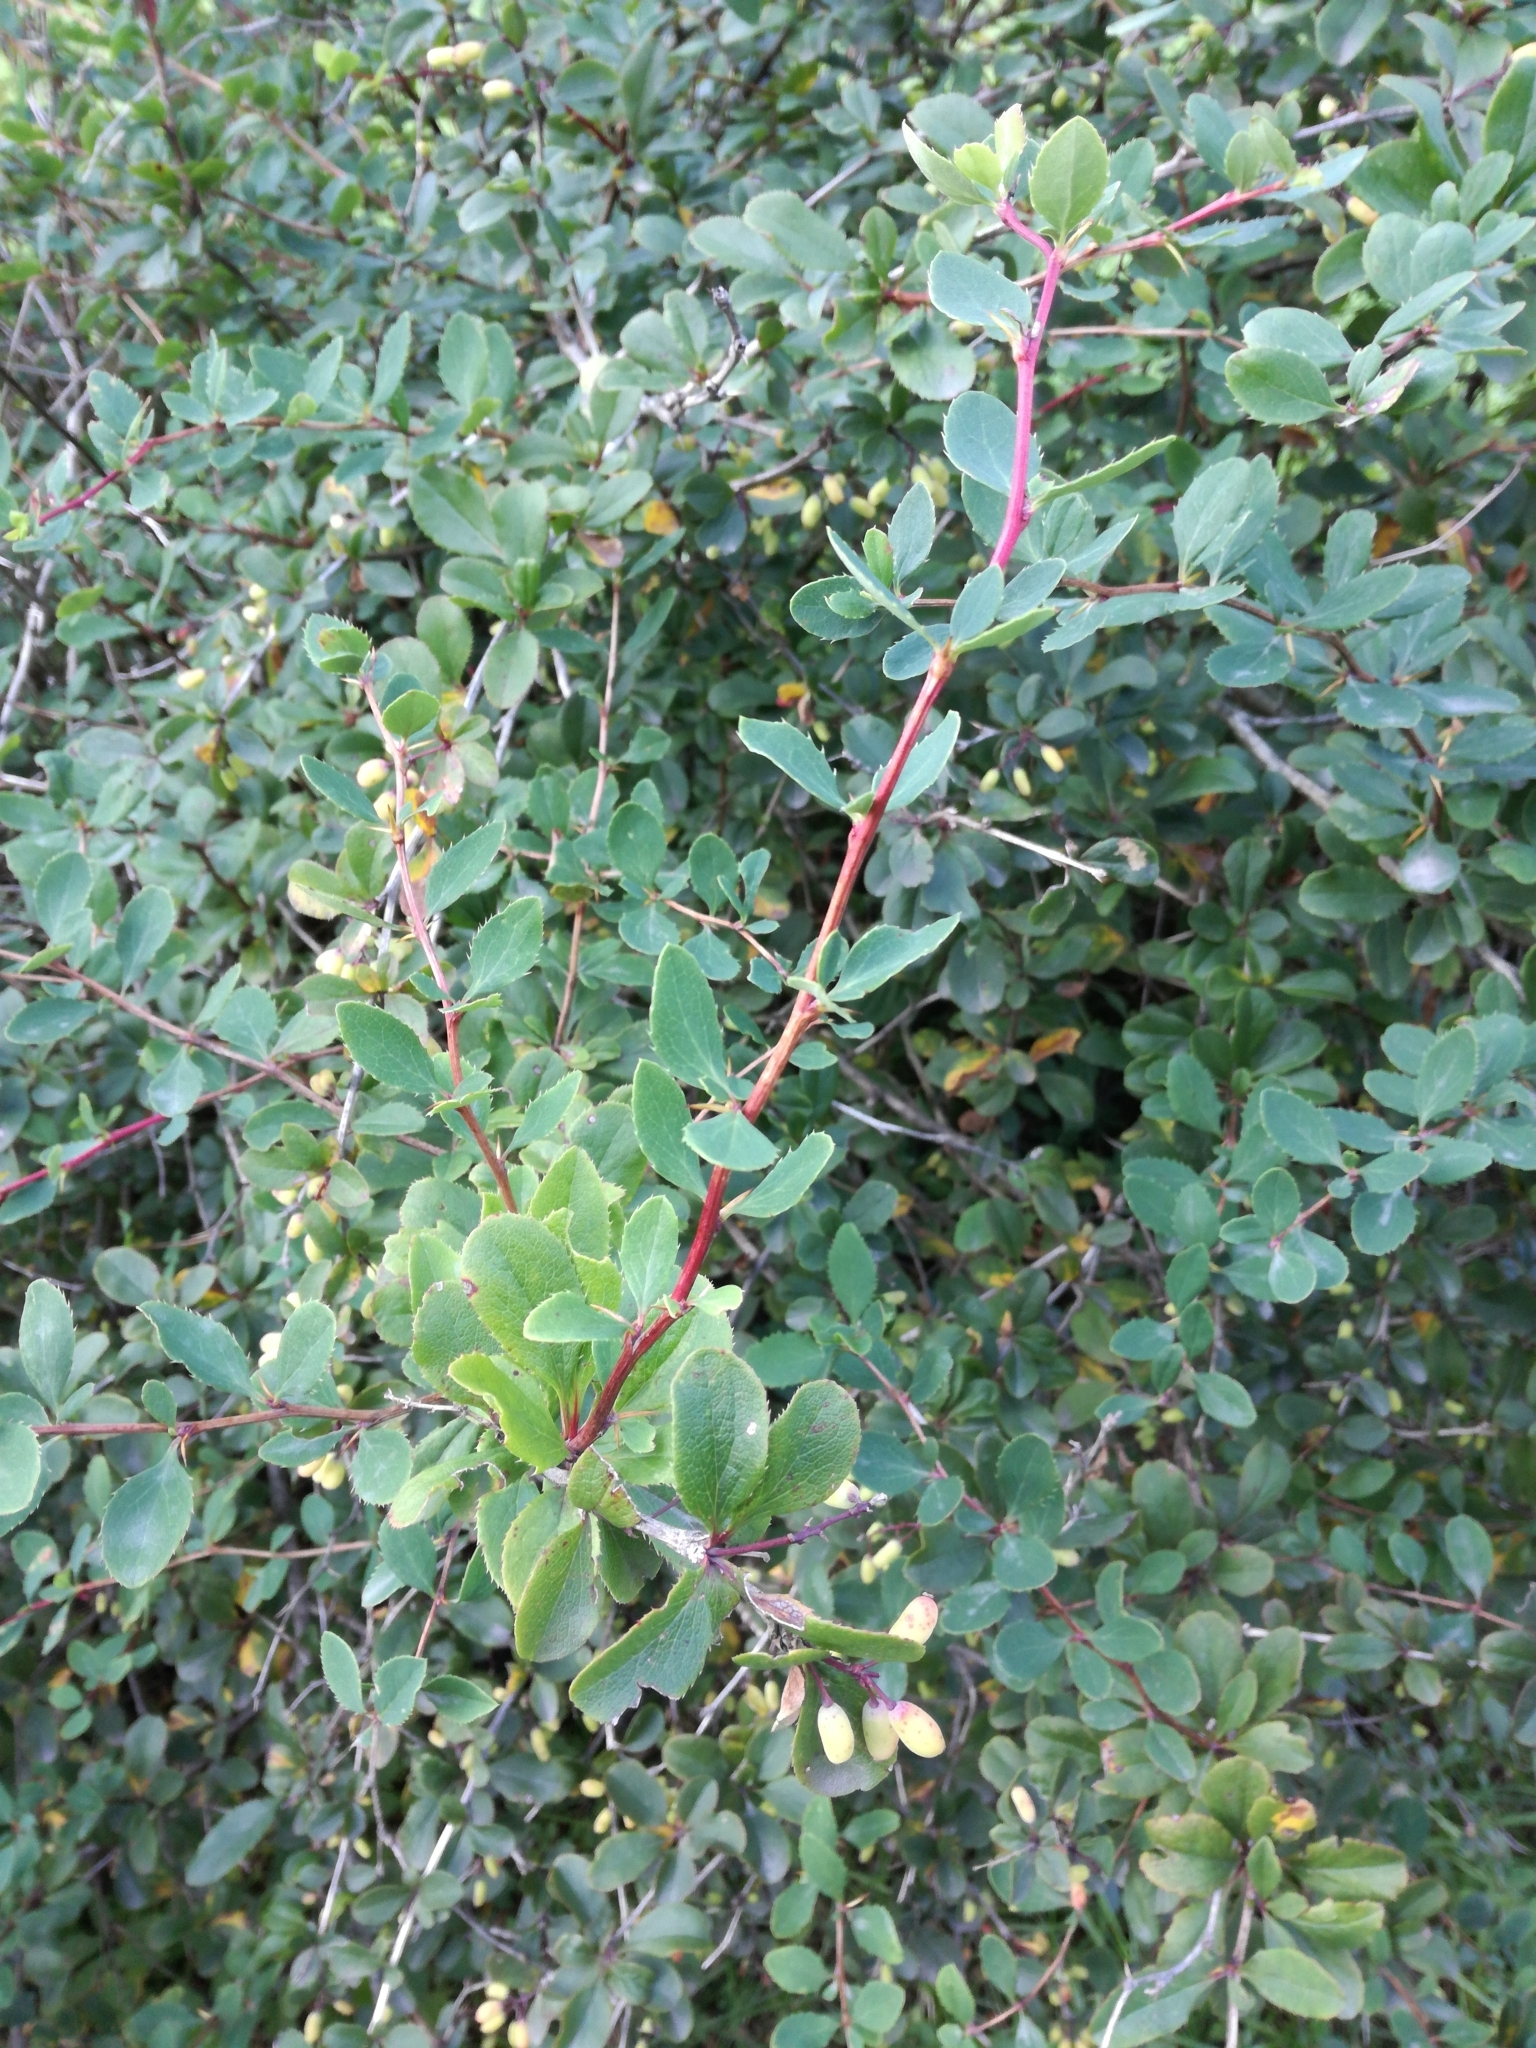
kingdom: Plantae
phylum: Tracheophyta
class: Magnoliopsida
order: Ranunculales
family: Berberidaceae
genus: Berberis
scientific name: Berberis vulgaris
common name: Barberry
